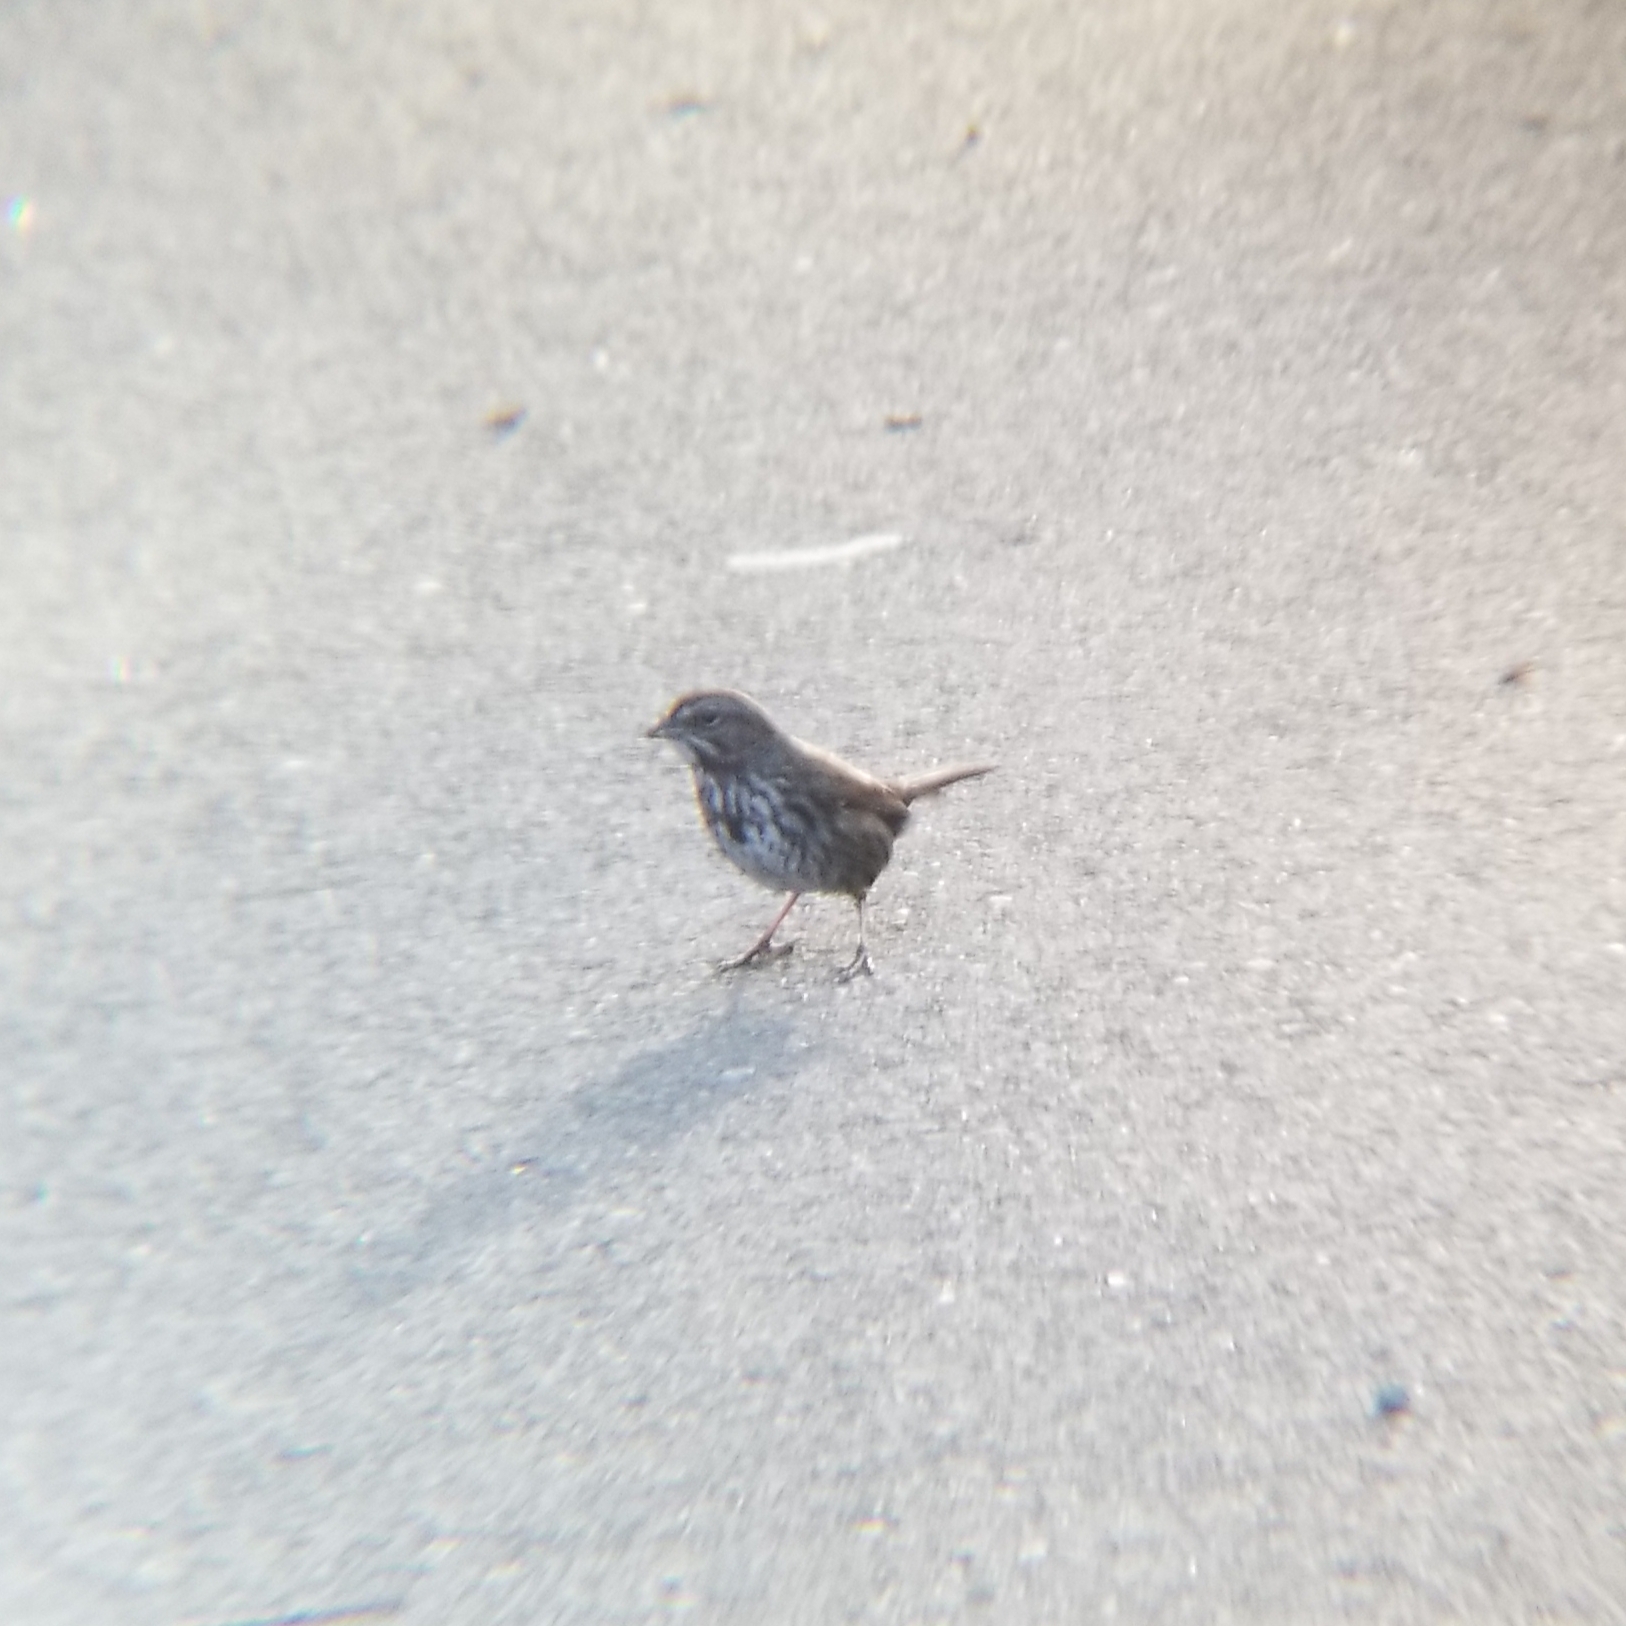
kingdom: Animalia
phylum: Chordata
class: Aves
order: Passeriformes
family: Passerellidae
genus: Melospiza
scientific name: Melospiza melodia
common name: Song sparrow
